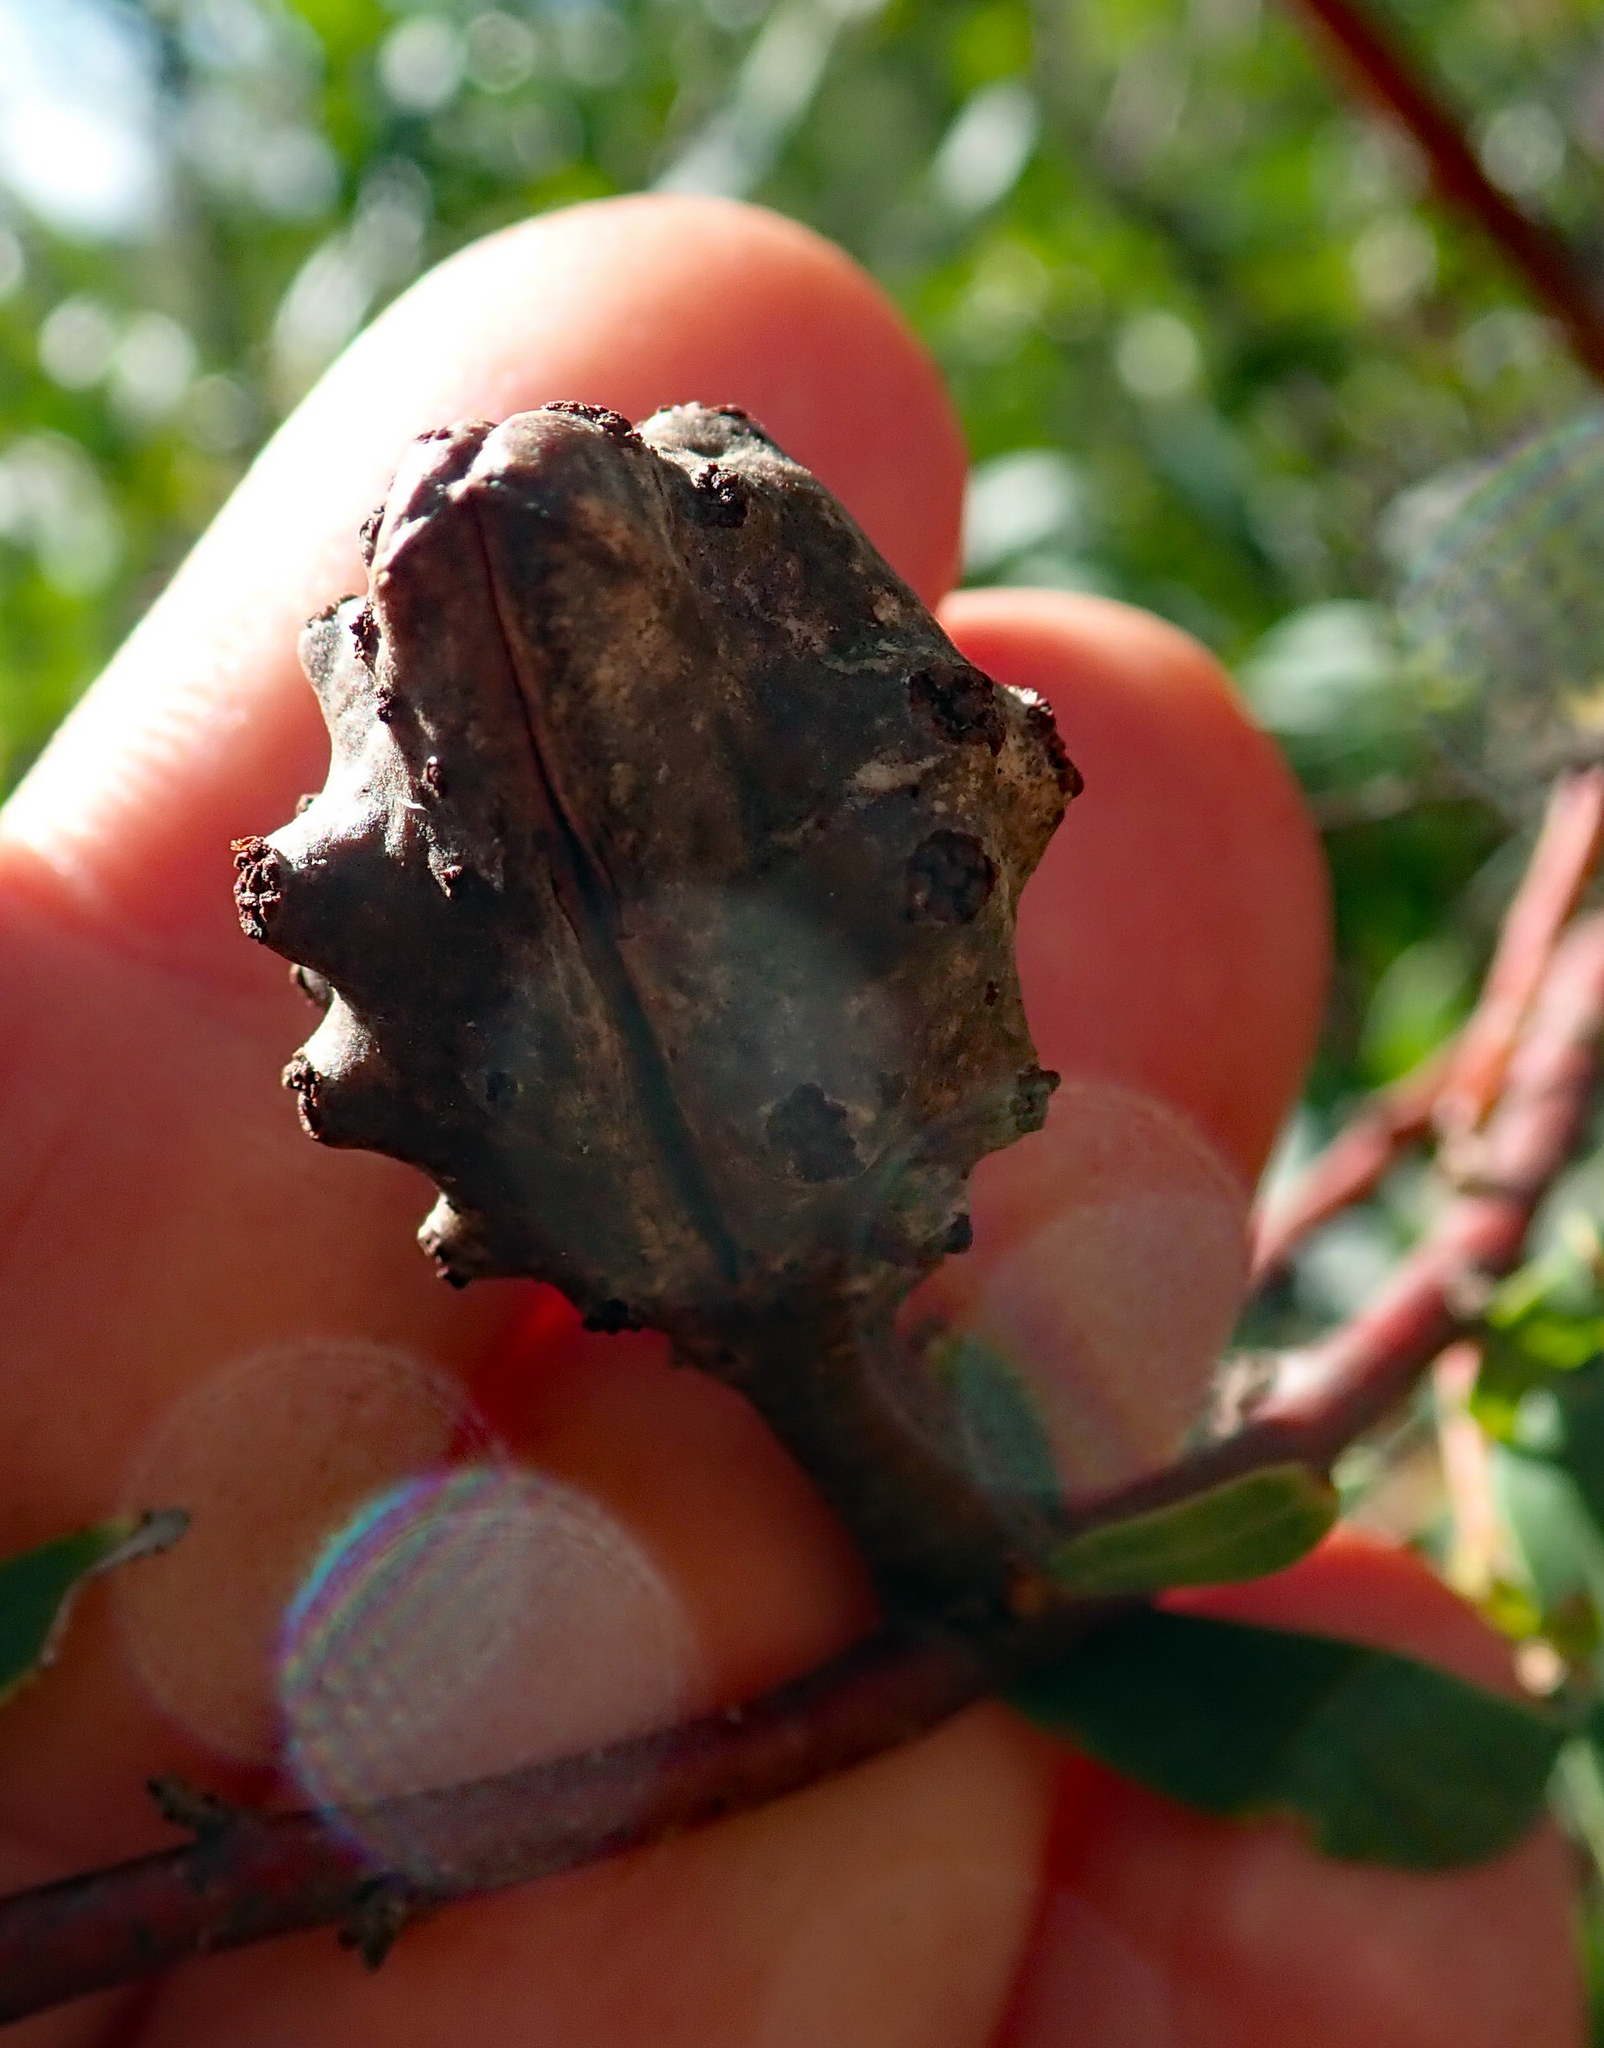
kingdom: Plantae
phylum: Tracheophyta
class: Magnoliopsida
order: Proteales
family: Proteaceae
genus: Hakea
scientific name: Hakea salicifolia
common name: Willow hakea
